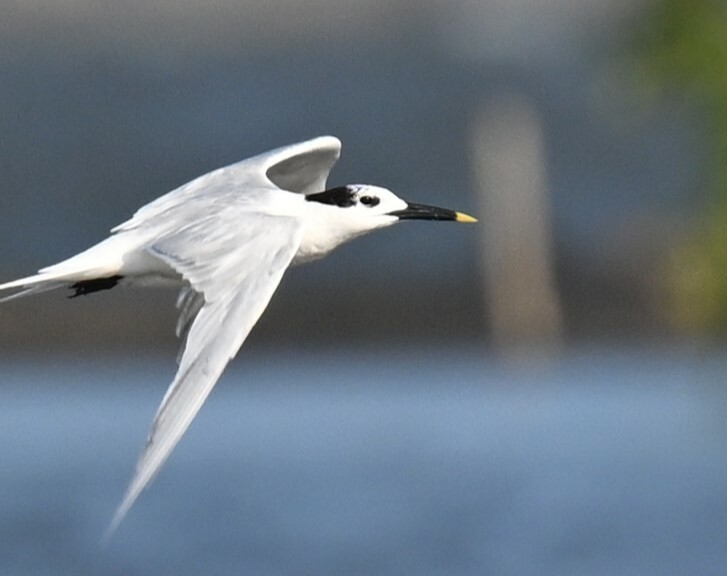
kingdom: Animalia
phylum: Chordata
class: Aves
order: Charadriiformes
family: Laridae
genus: Thalasseus
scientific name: Thalasseus sandvicensis
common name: Sandwich tern
